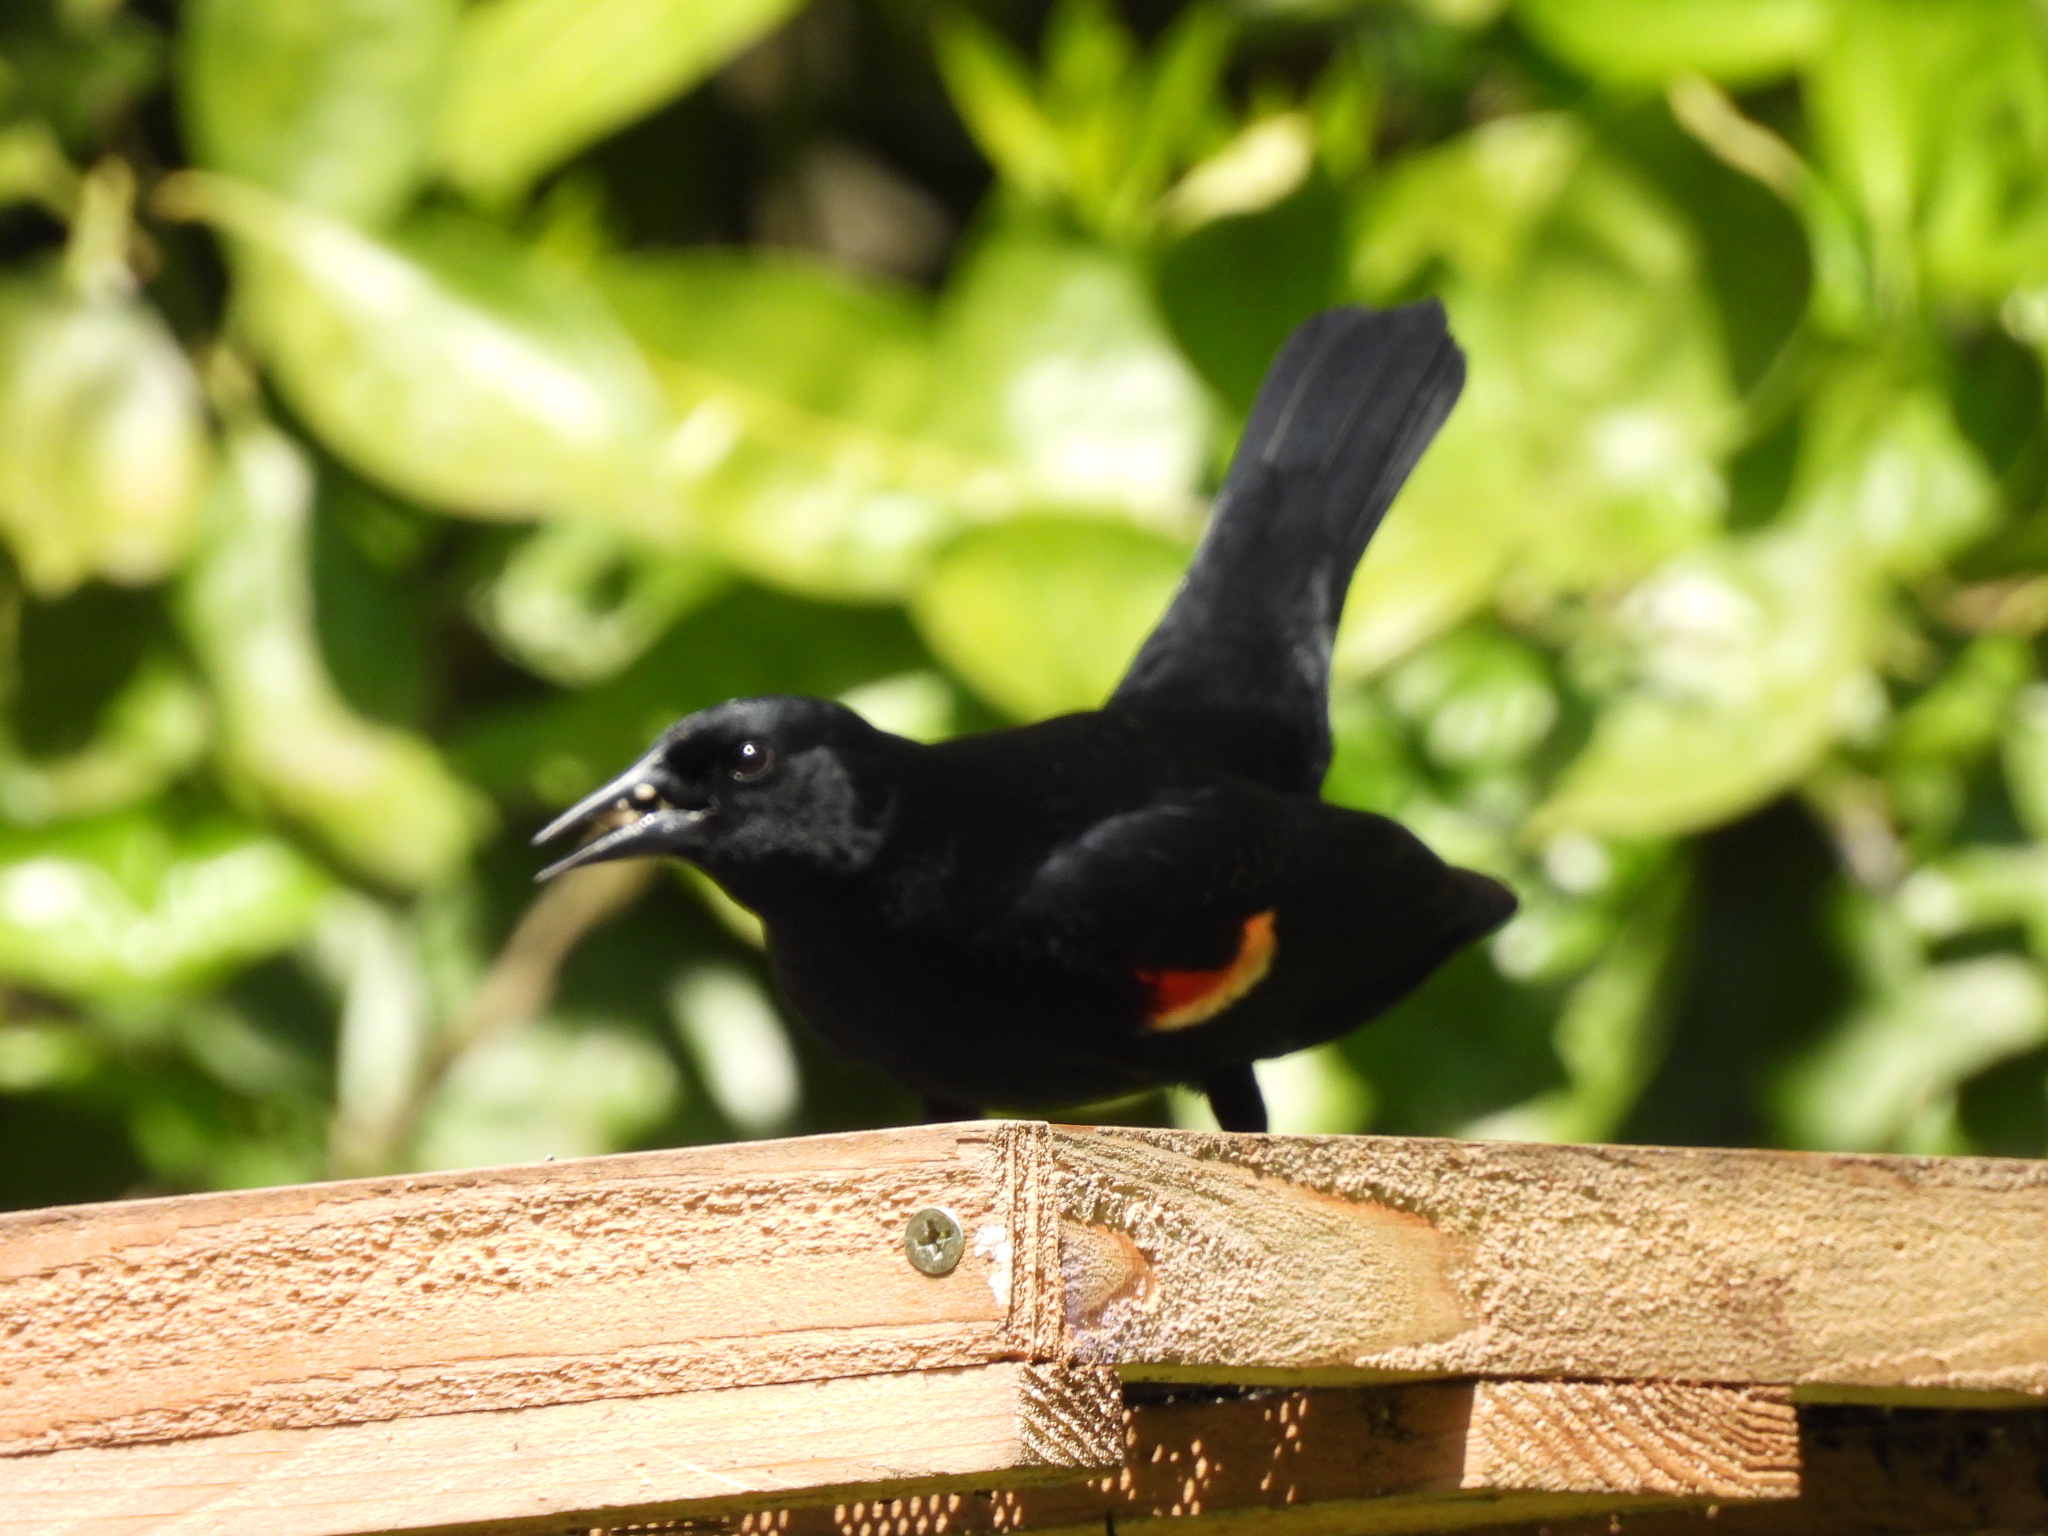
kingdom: Animalia
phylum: Chordata
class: Aves
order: Passeriformes
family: Icteridae
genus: Agelaius
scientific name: Agelaius phoeniceus
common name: Red-winged blackbird
